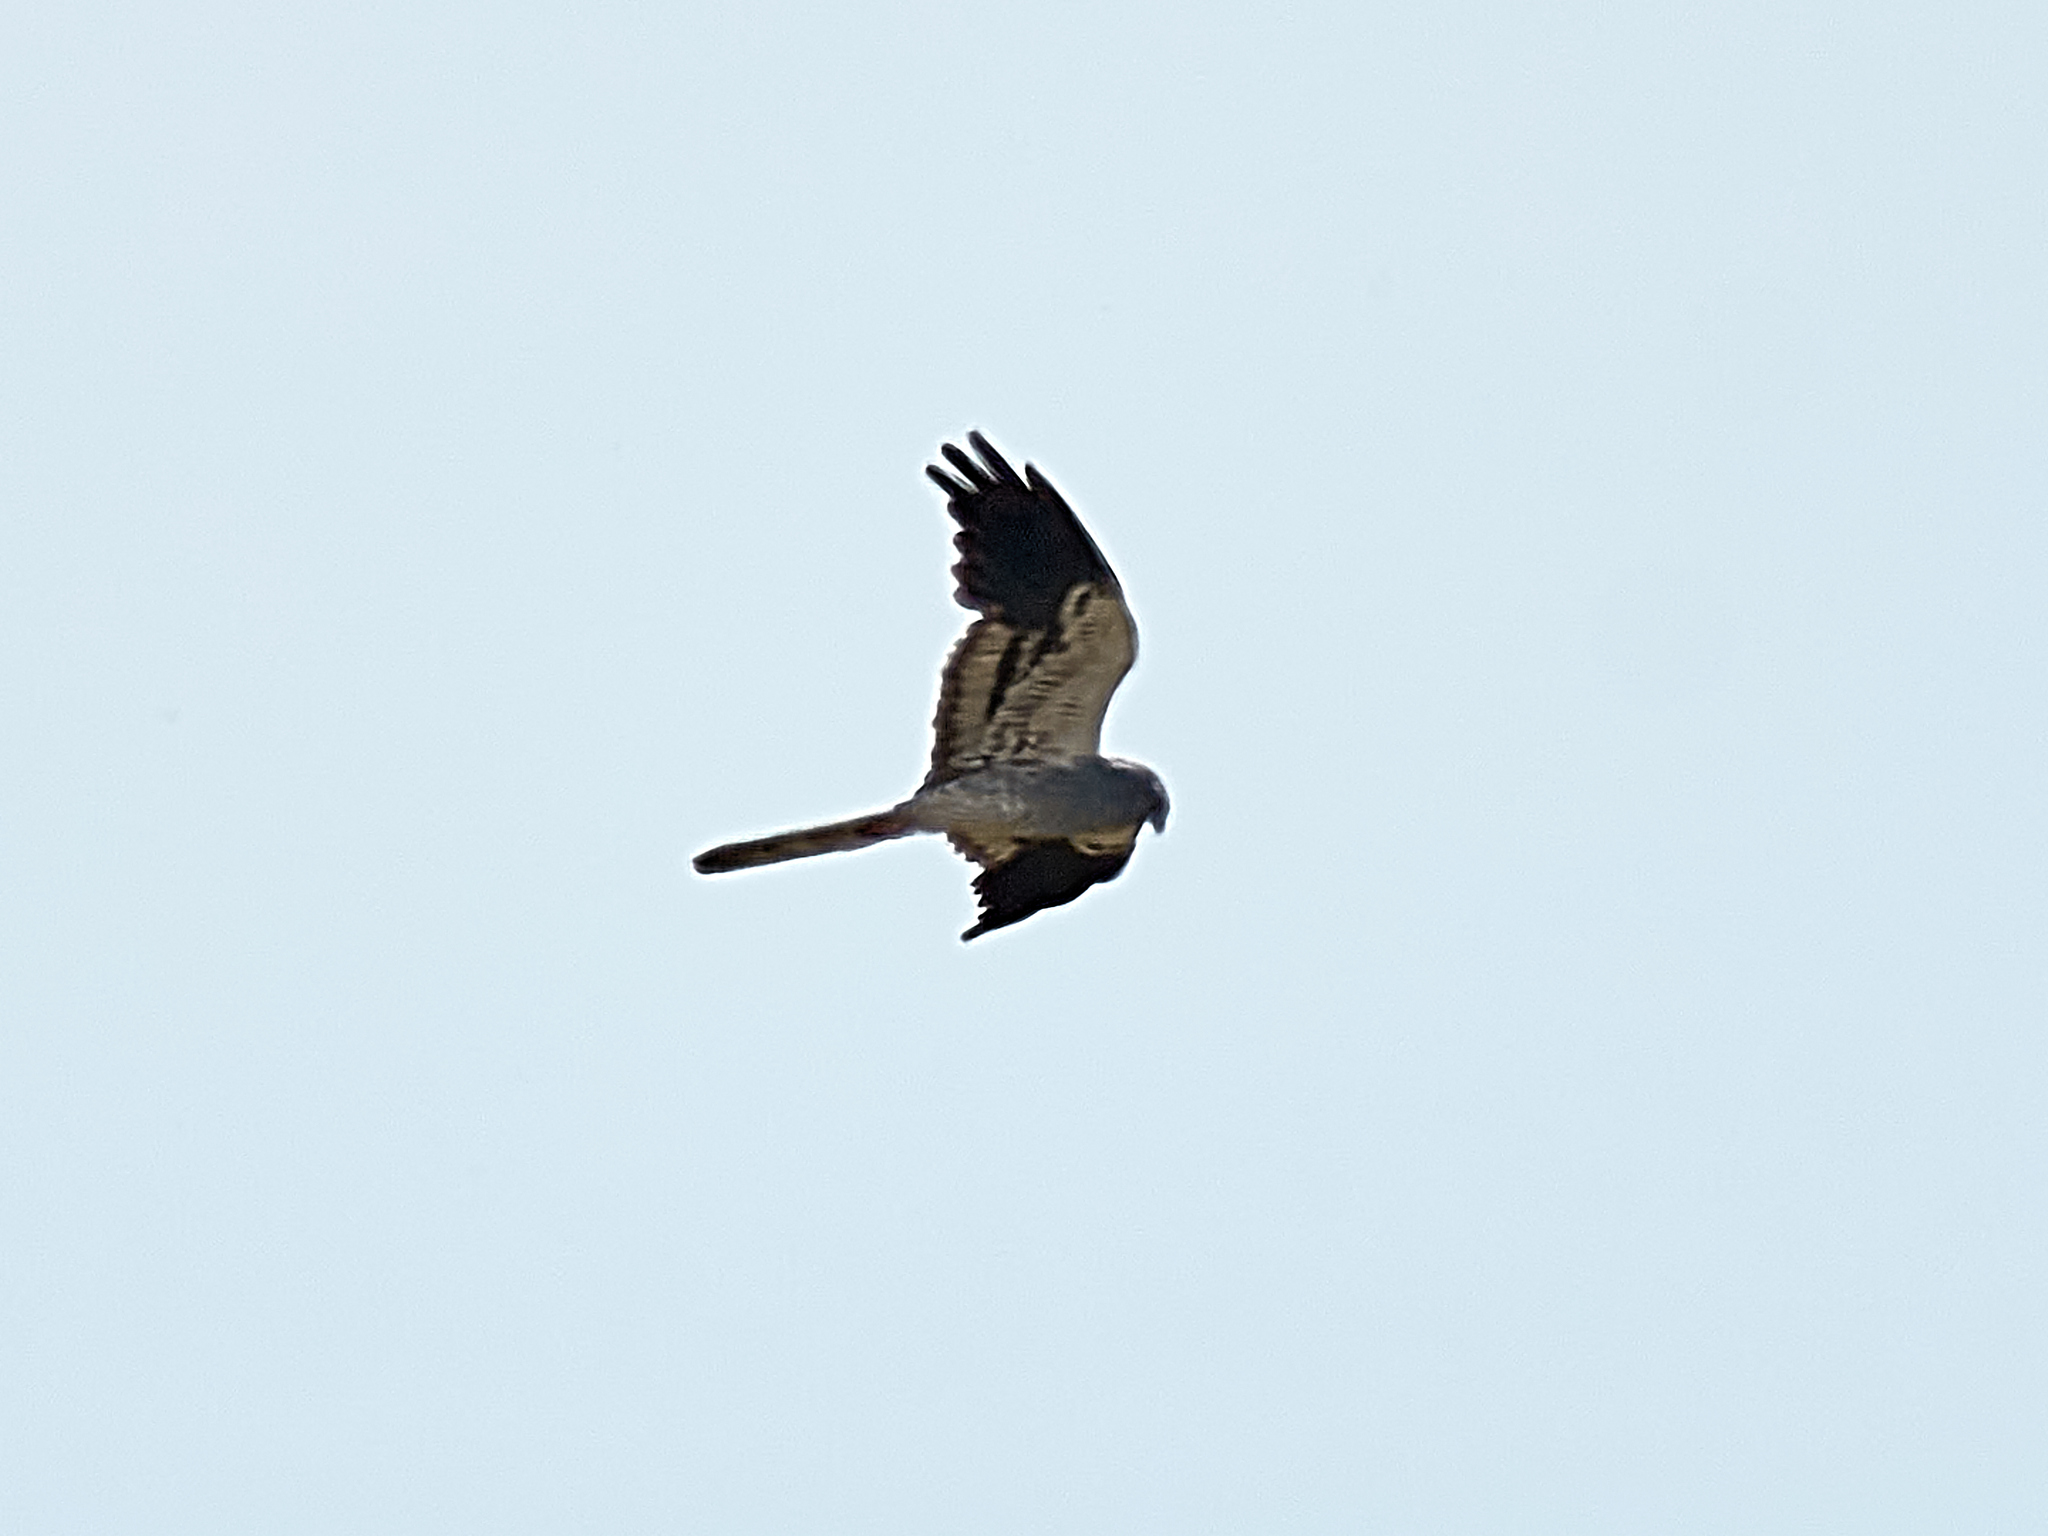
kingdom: Animalia
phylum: Chordata
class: Aves
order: Accipitriformes
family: Accipitridae
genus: Circus
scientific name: Circus pygargus
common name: Montagu's harrier
